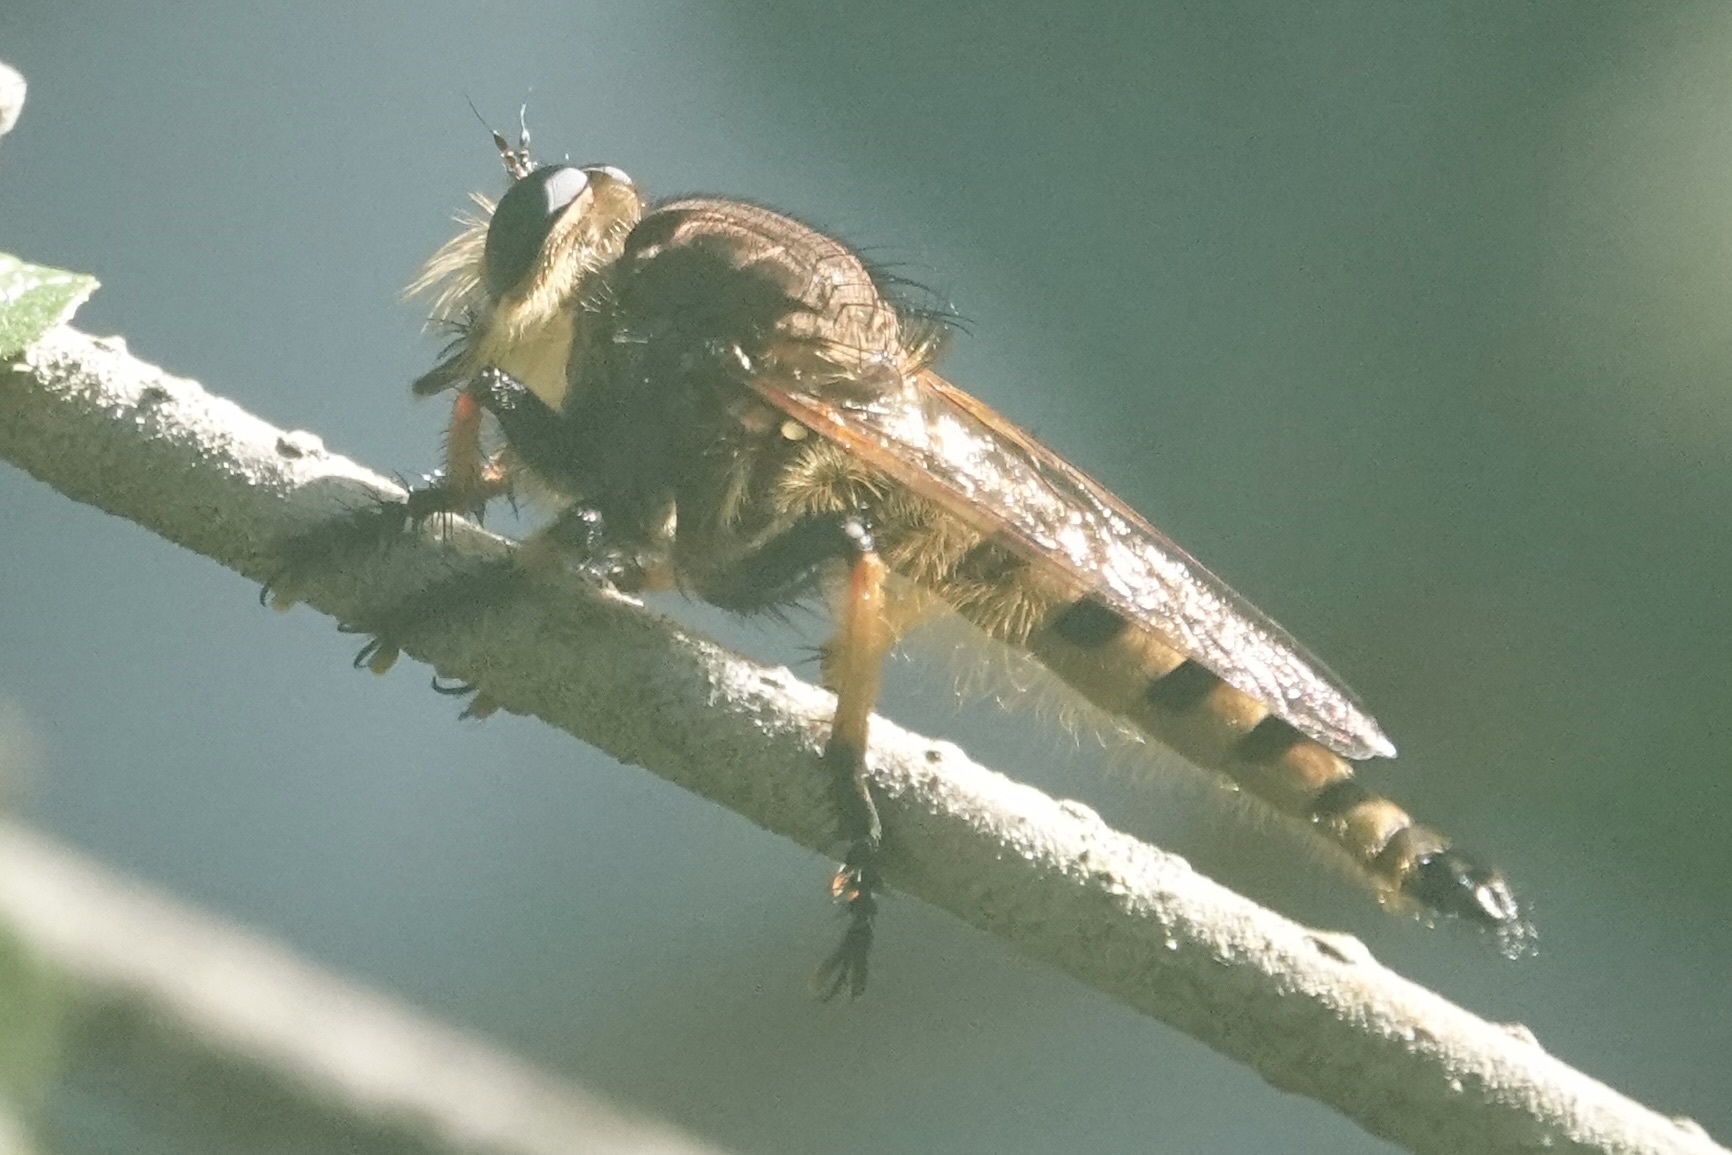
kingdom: Animalia
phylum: Arthropoda
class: Insecta
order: Diptera
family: Asilidae
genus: Promachus
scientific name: Promachus rufipes
